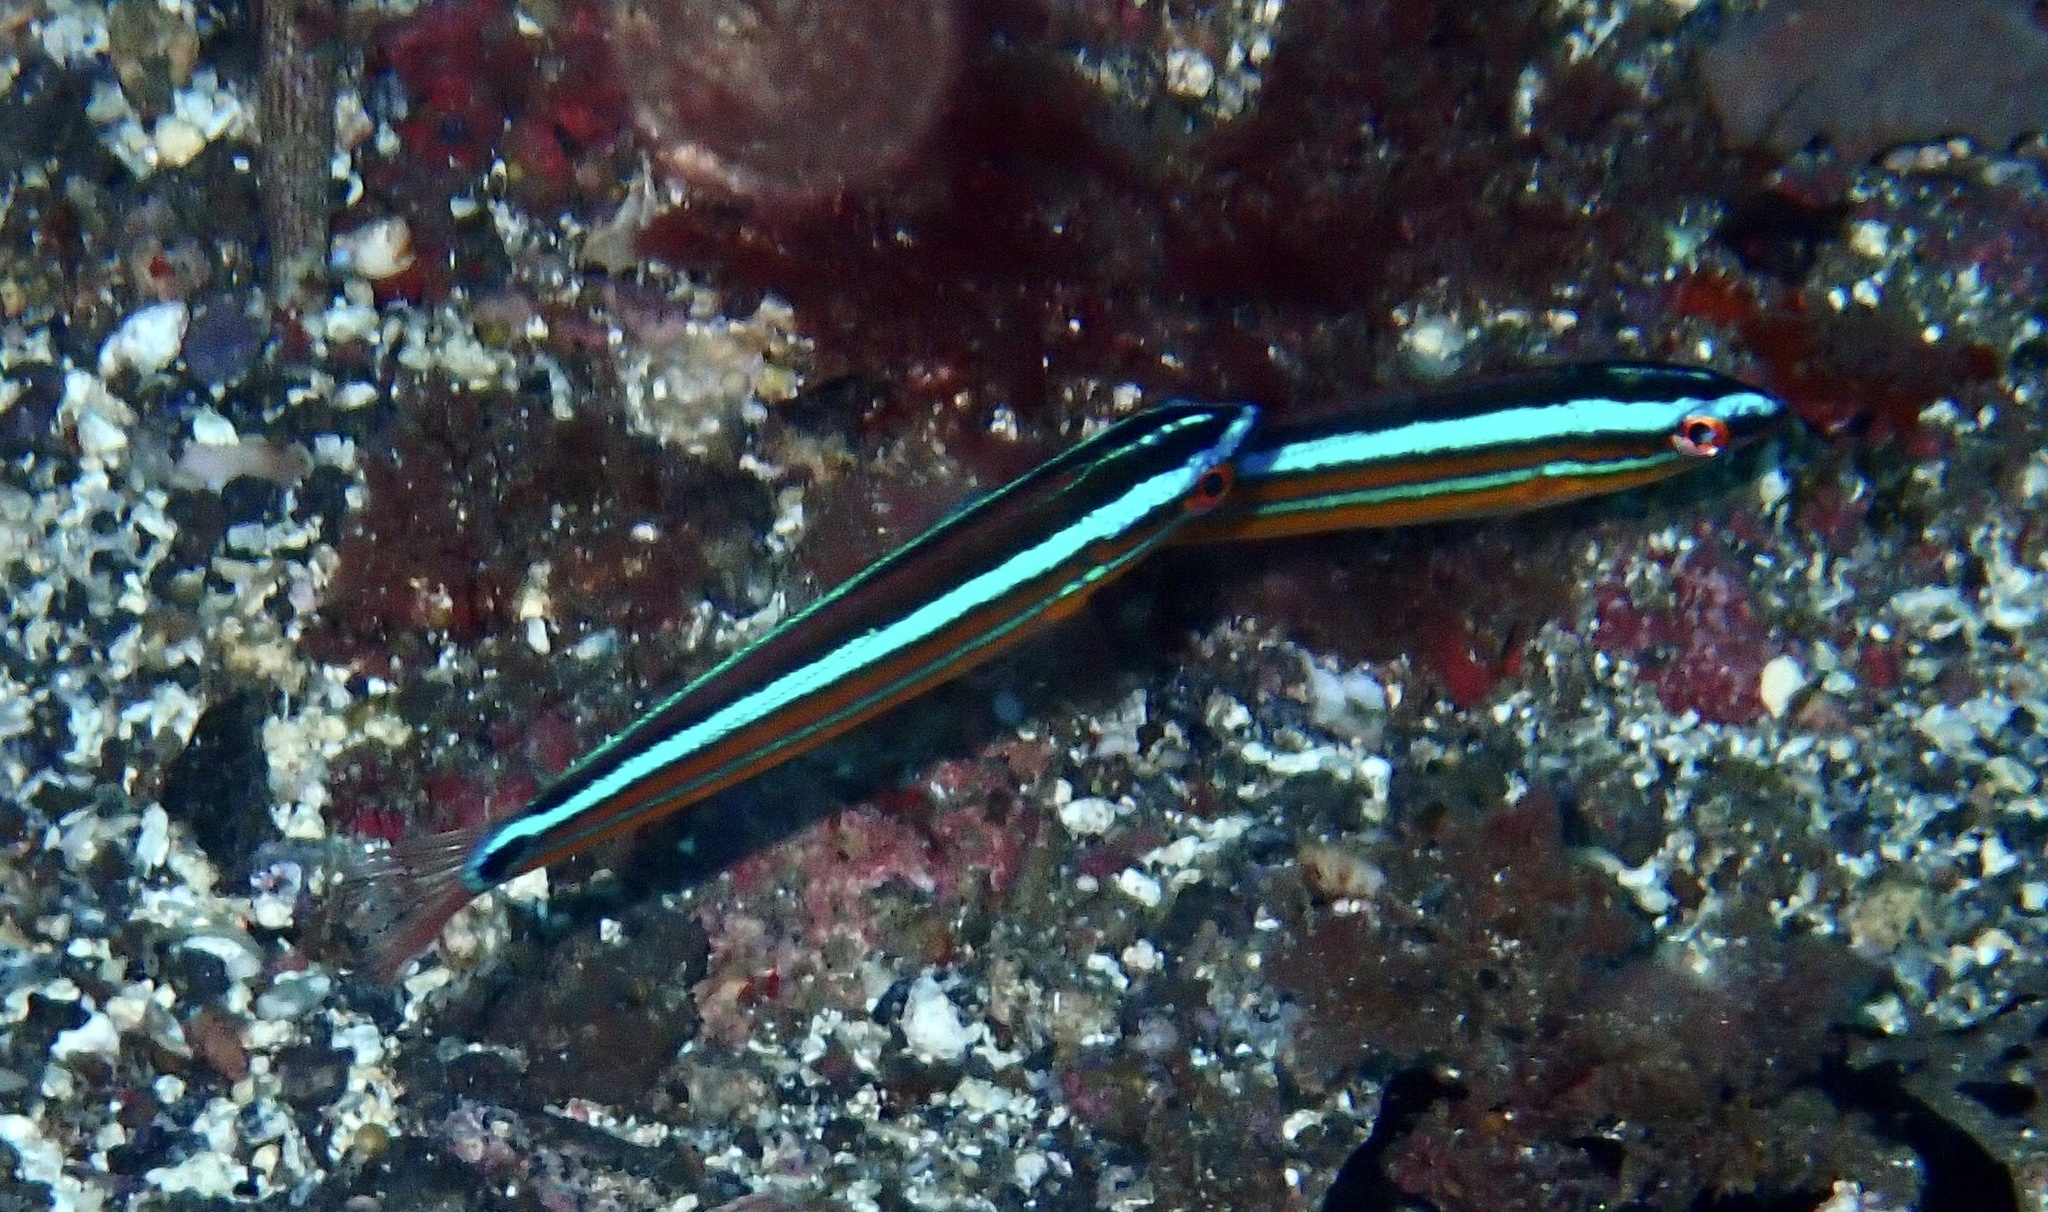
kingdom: Animalia
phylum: Chordata
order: Perciformes
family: Labridae
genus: Coris
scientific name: Coris atlantica
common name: Rainbow wrasse
